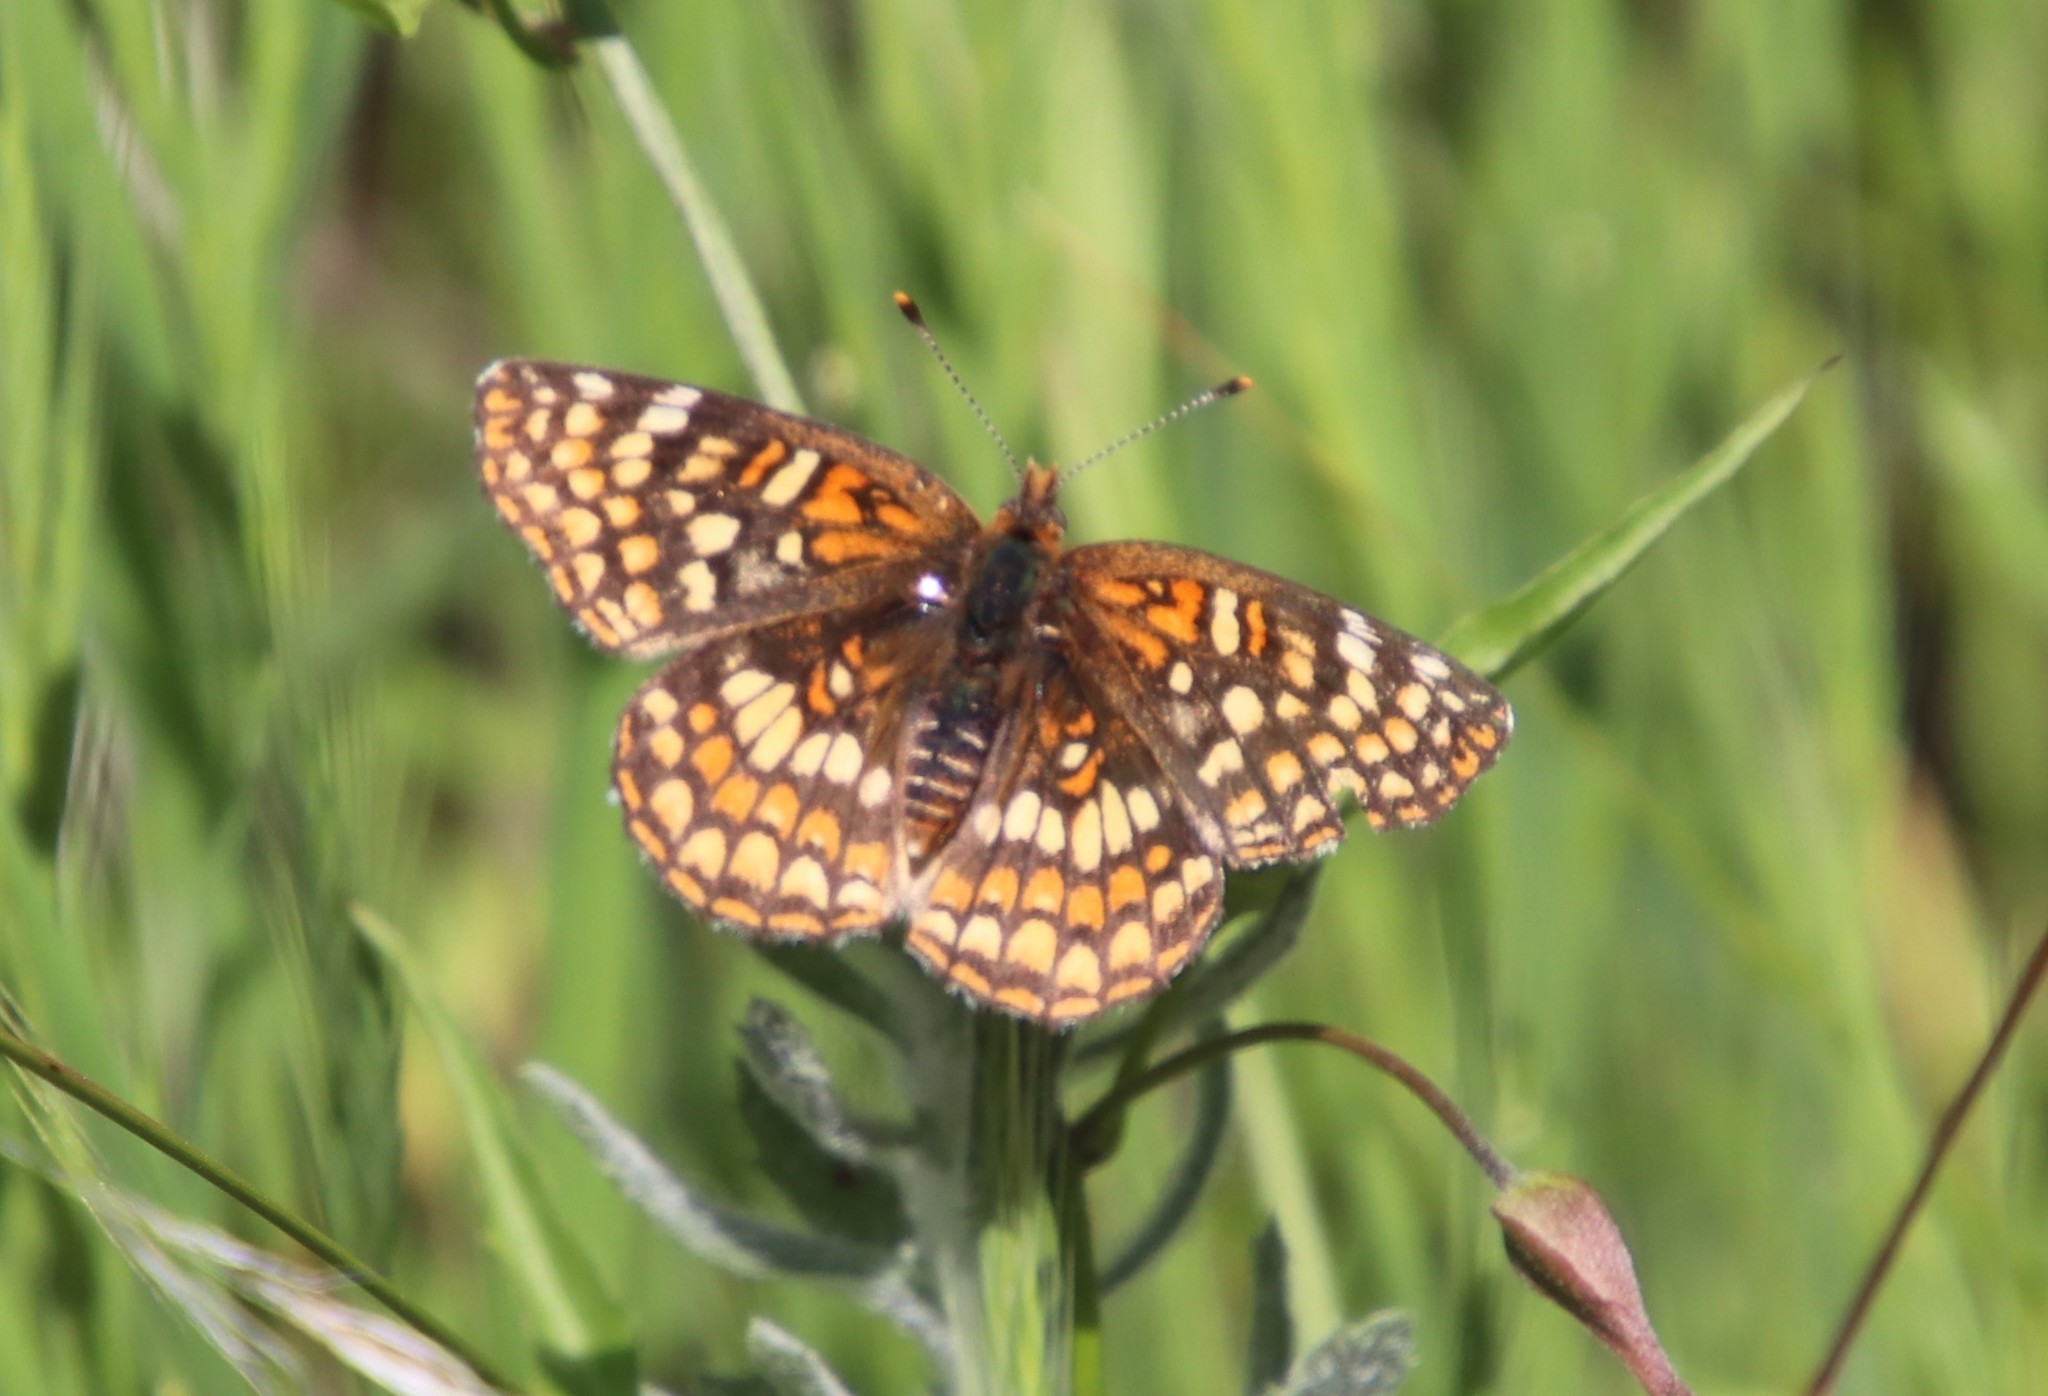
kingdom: Animalia
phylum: Arthropoda
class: Insecta
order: Lepidoptera
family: Nymphalidae
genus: Chlosyne
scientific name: Chlosyne gabbii
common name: Gabb's checkerspot
